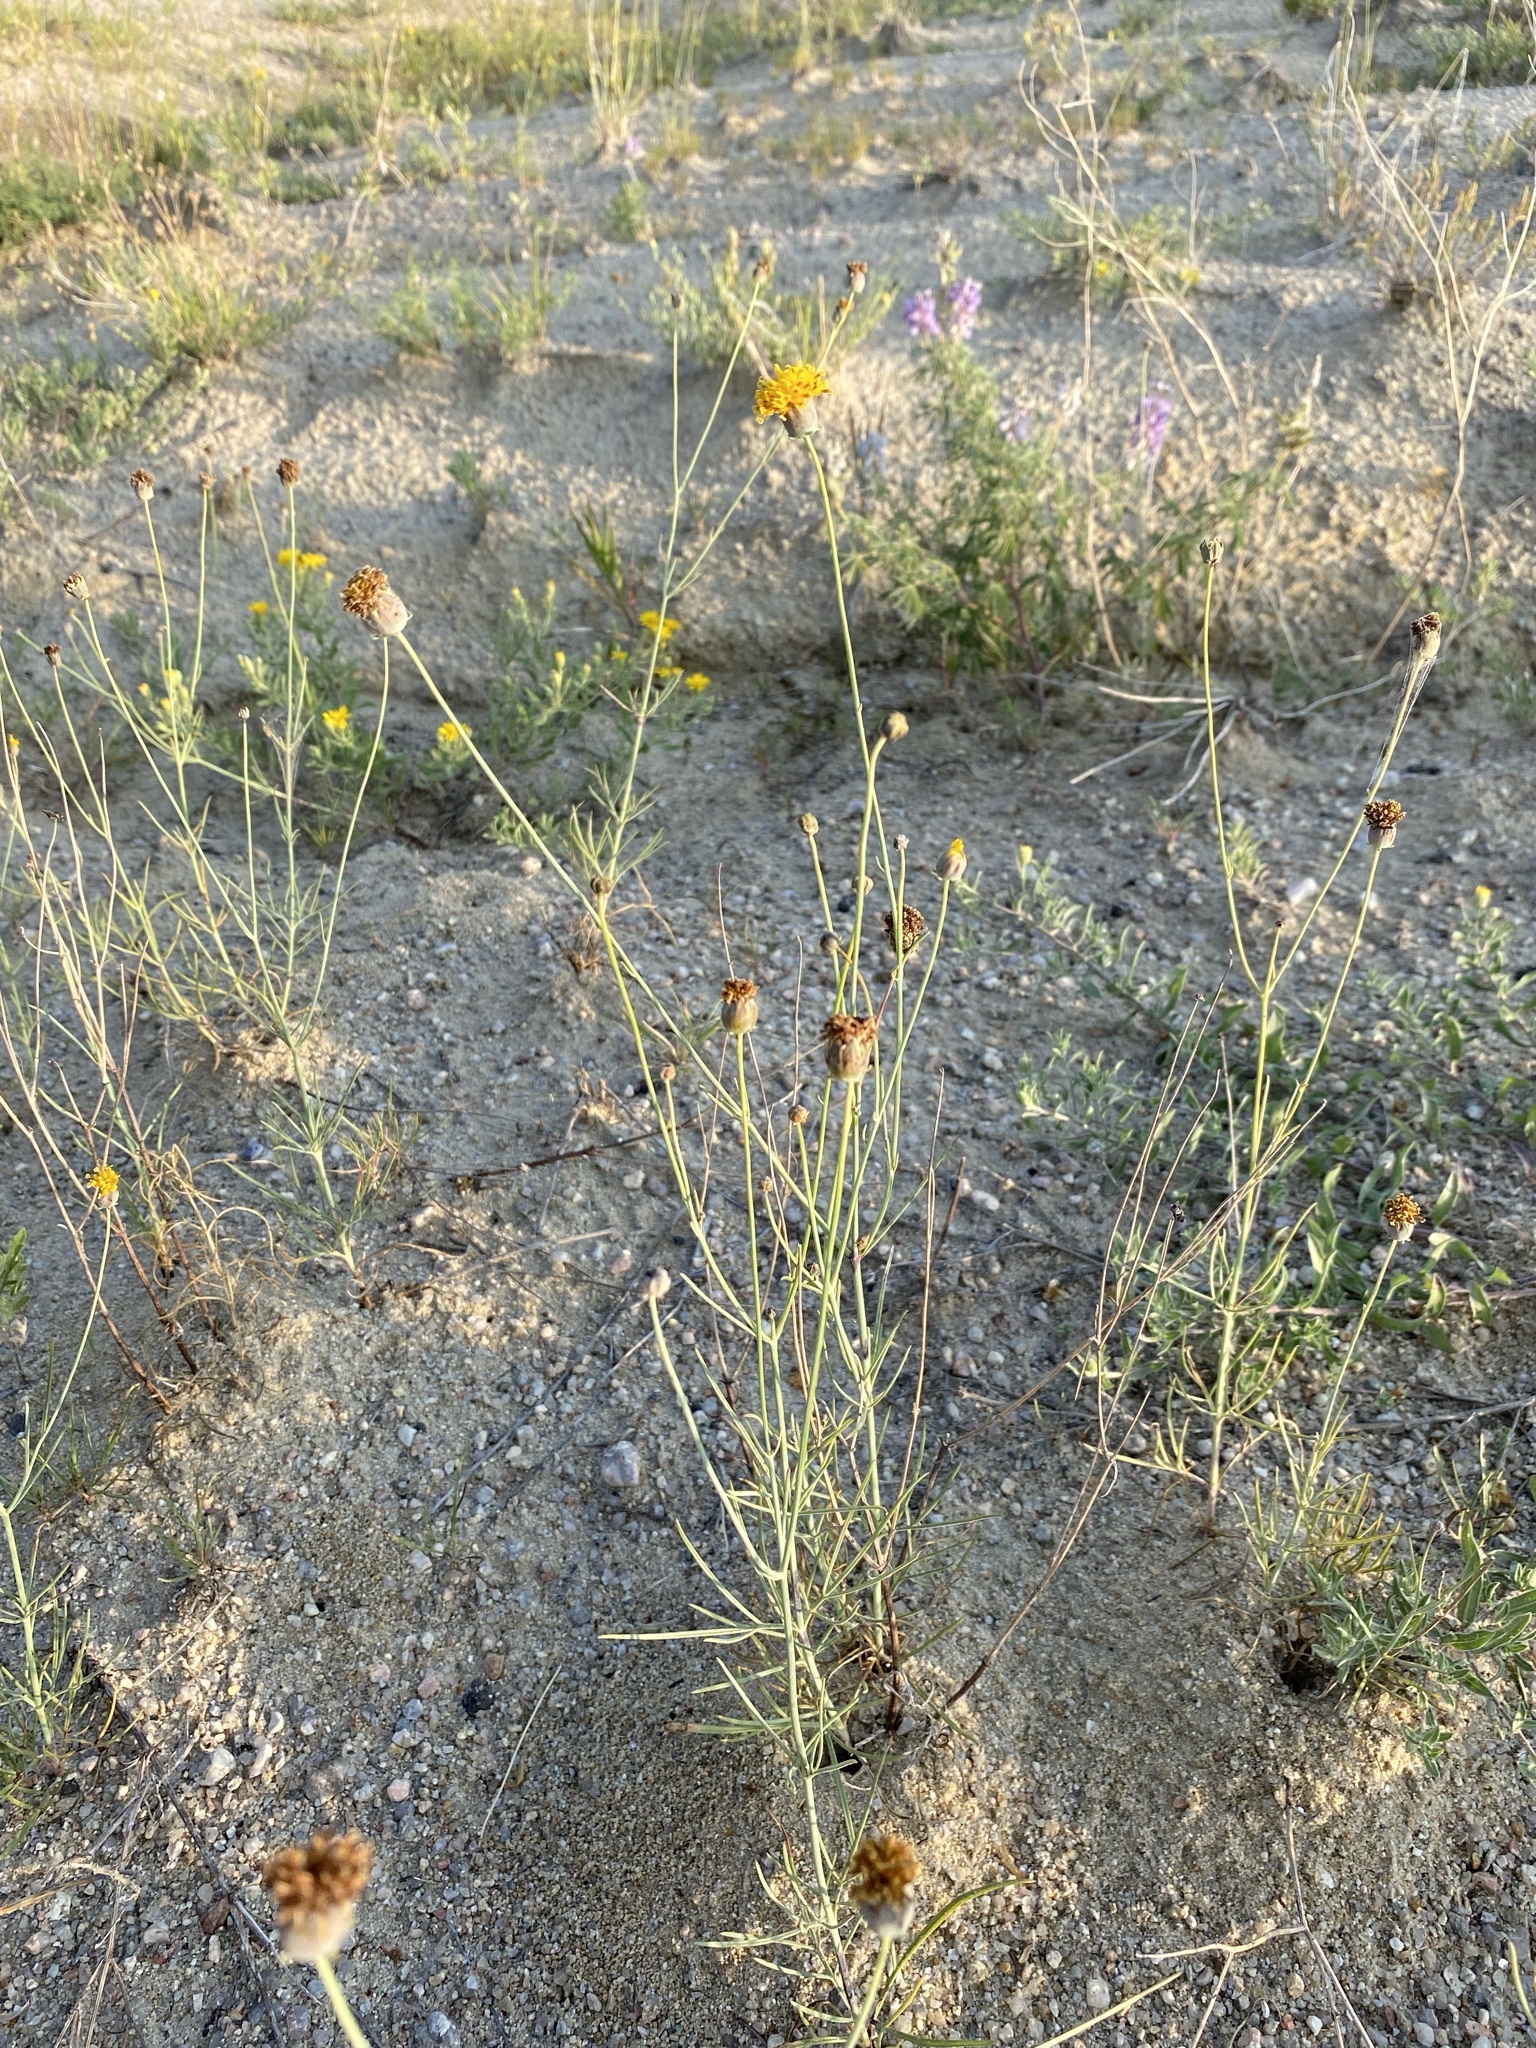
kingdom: Plantae
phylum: Tracheophyta
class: Magnoliopsida
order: Asterales
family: Asteraceae
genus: Thelesperma
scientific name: Thelesperma megapotamicum
